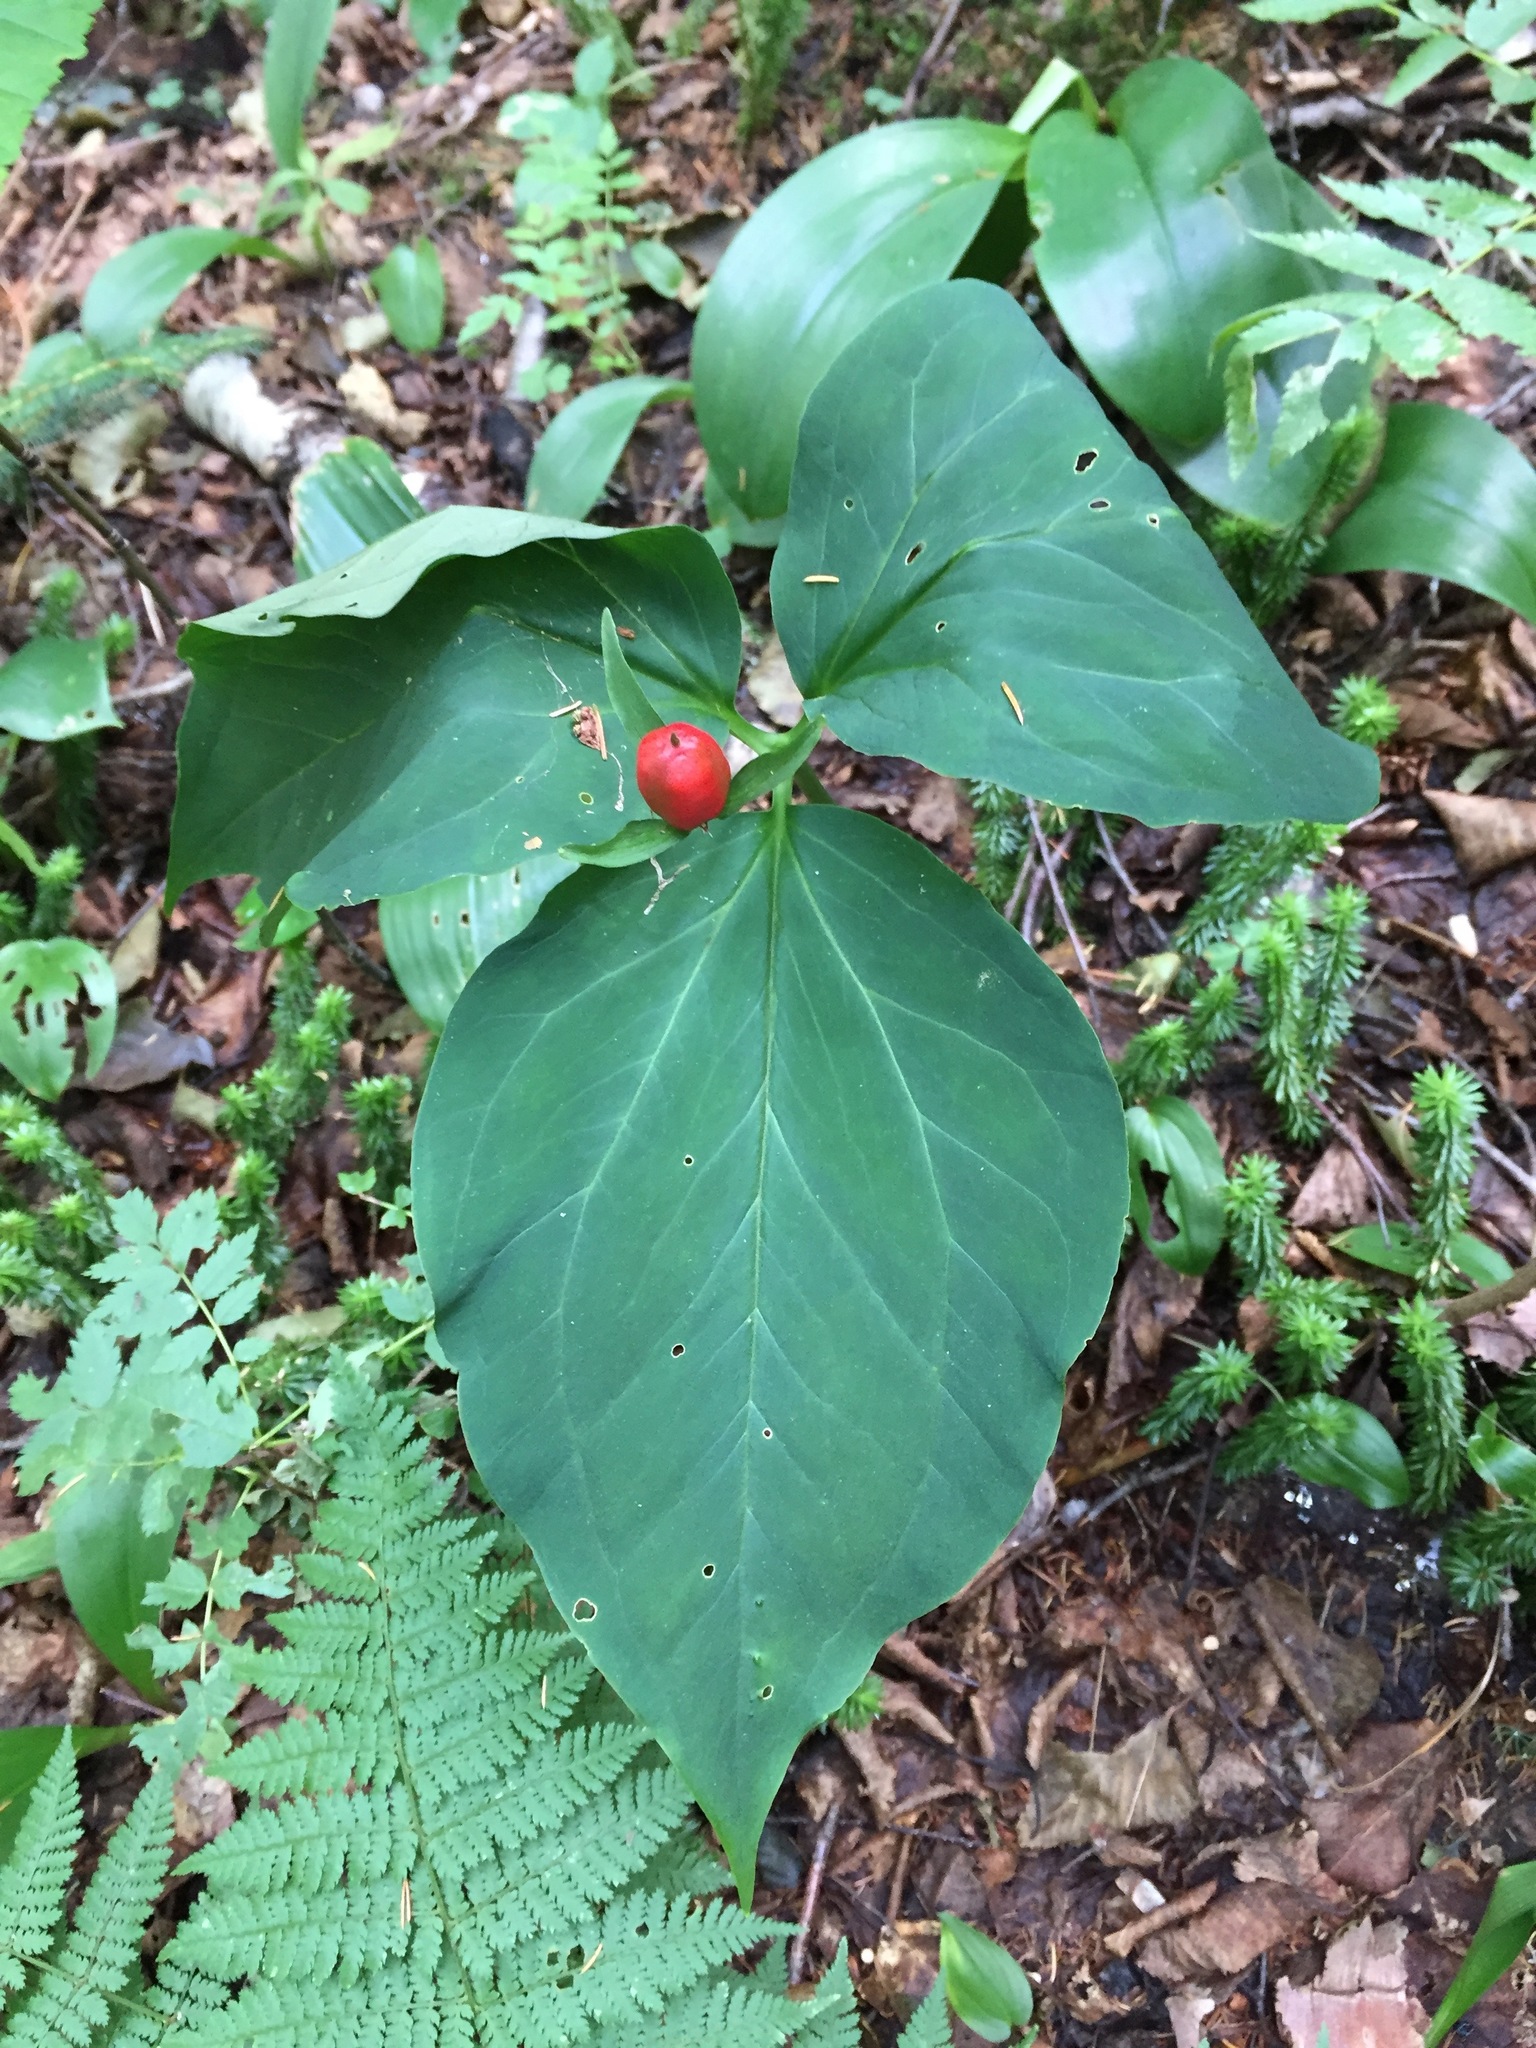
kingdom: Plantae
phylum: Tracheophyta
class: Liliopsida
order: Liliales
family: Melanthiaceae
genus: Trillium
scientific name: Trillium undulatum
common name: Paint trillium
